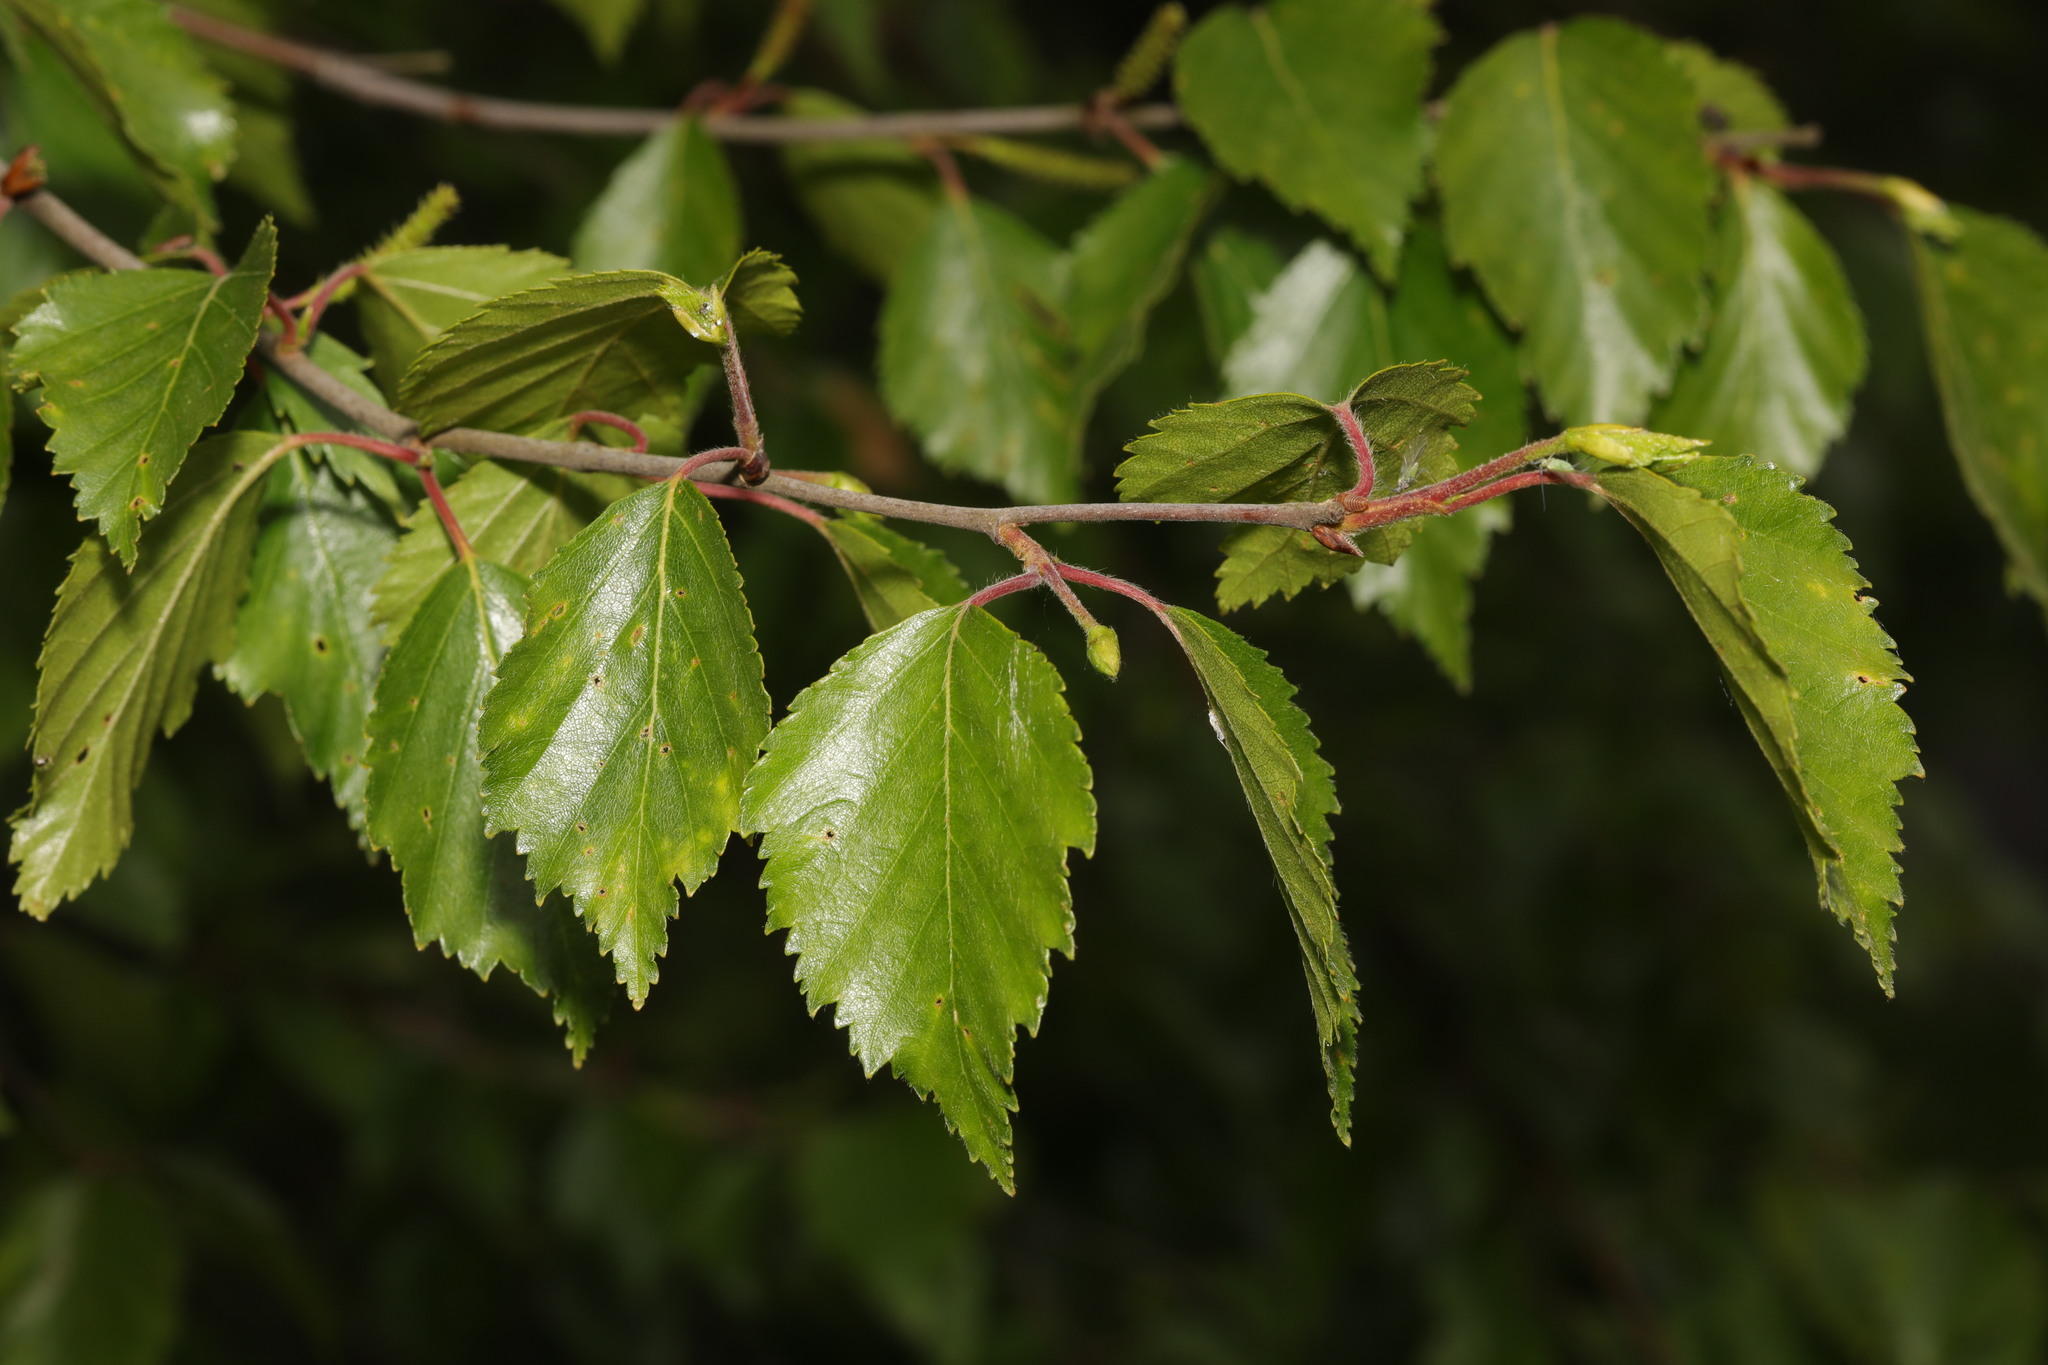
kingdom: Plantae
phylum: Tracheophyta
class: Magnoliopsida
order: Fagales
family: Betulaceae
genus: Betula
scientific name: Betula pubescens
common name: Downy birch
